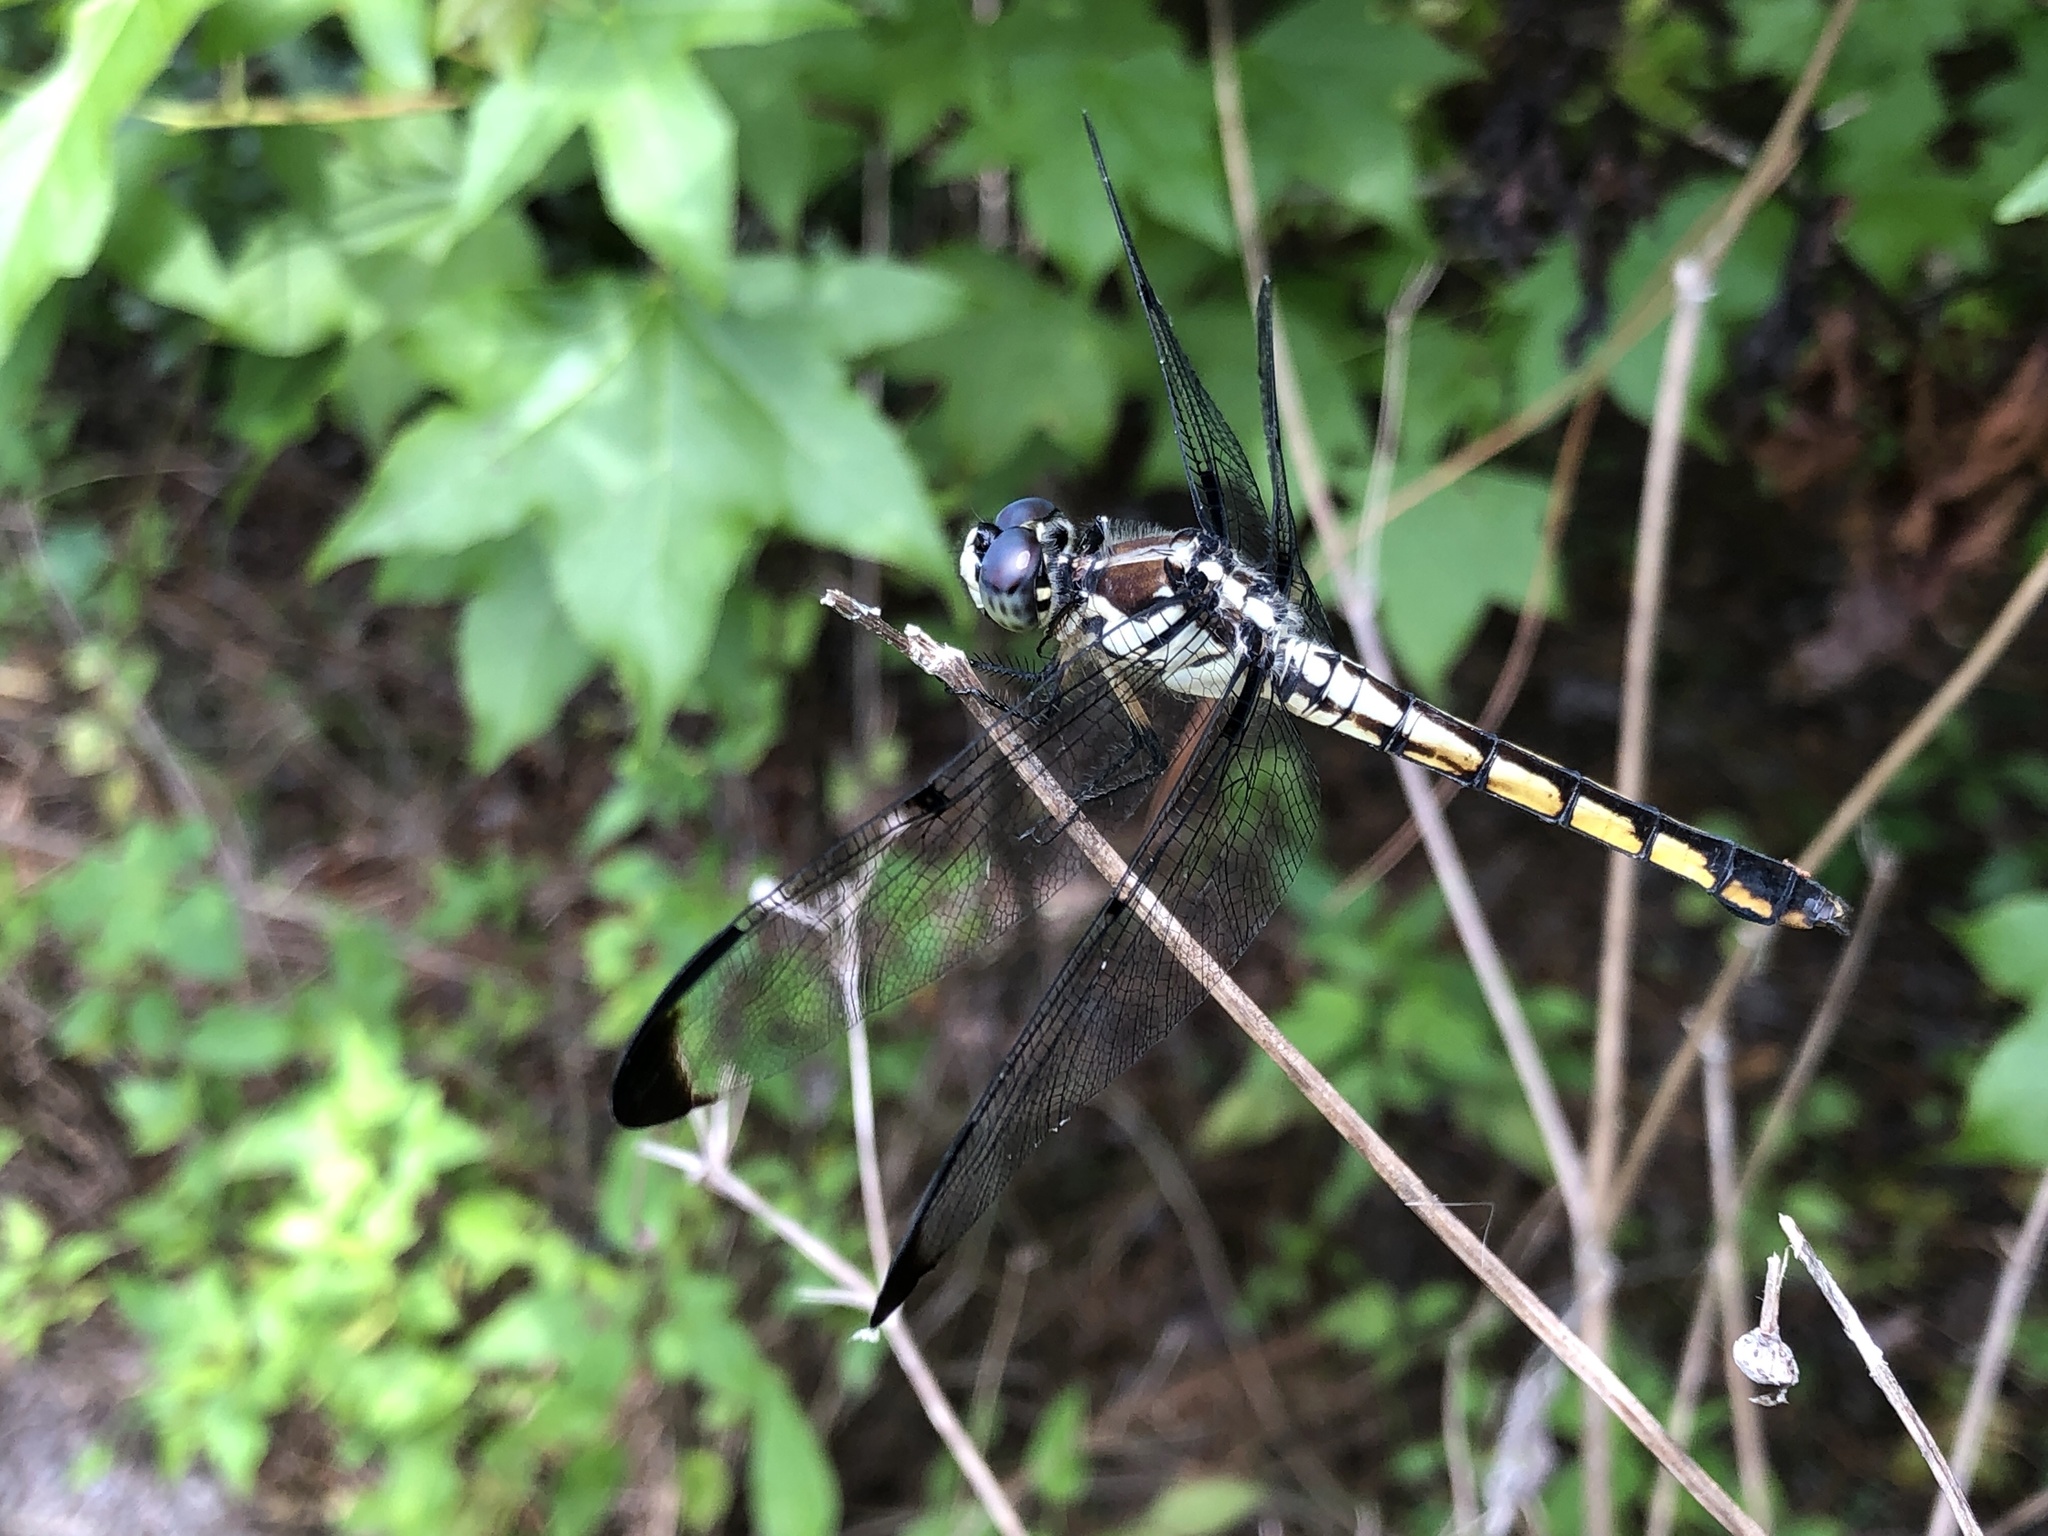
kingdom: Animalia
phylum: Arthropoda
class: Insecta
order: Odonata
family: Libellulidae
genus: Libellula
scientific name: Libellula vibrans
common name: Great blue skimmer
